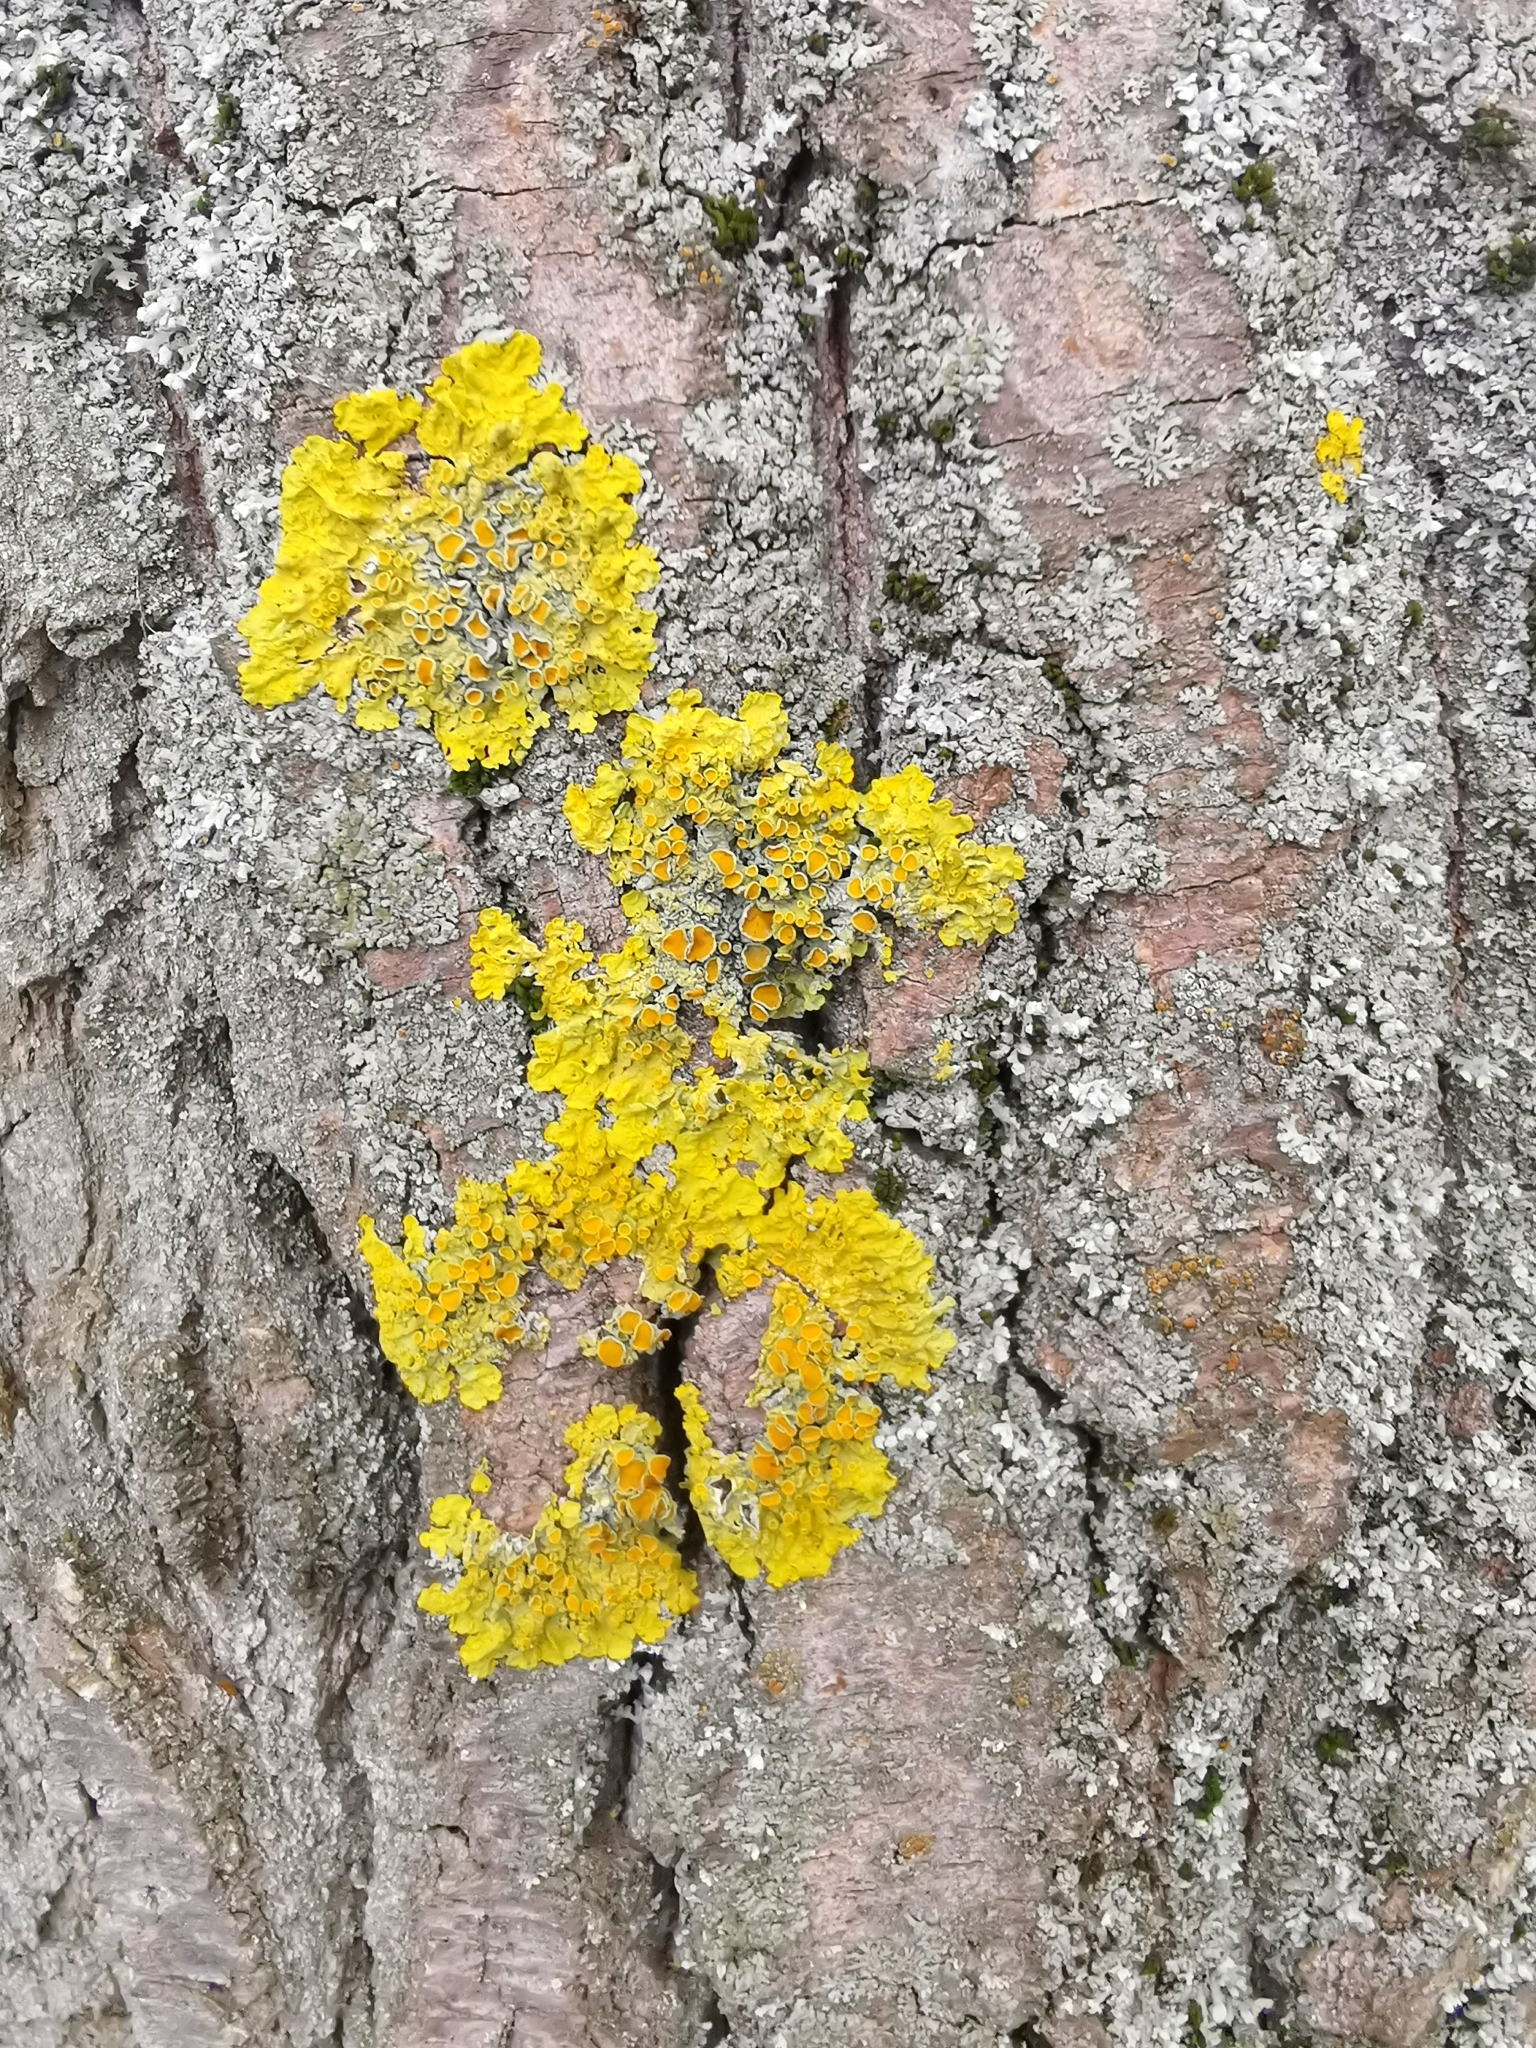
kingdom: Fungi
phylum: Ascomycota
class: Lecanoromycetes
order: Teloschistales
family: Teloschistaceae
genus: Xanthoria
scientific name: Xanthoria parietina
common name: Common orange lichen
